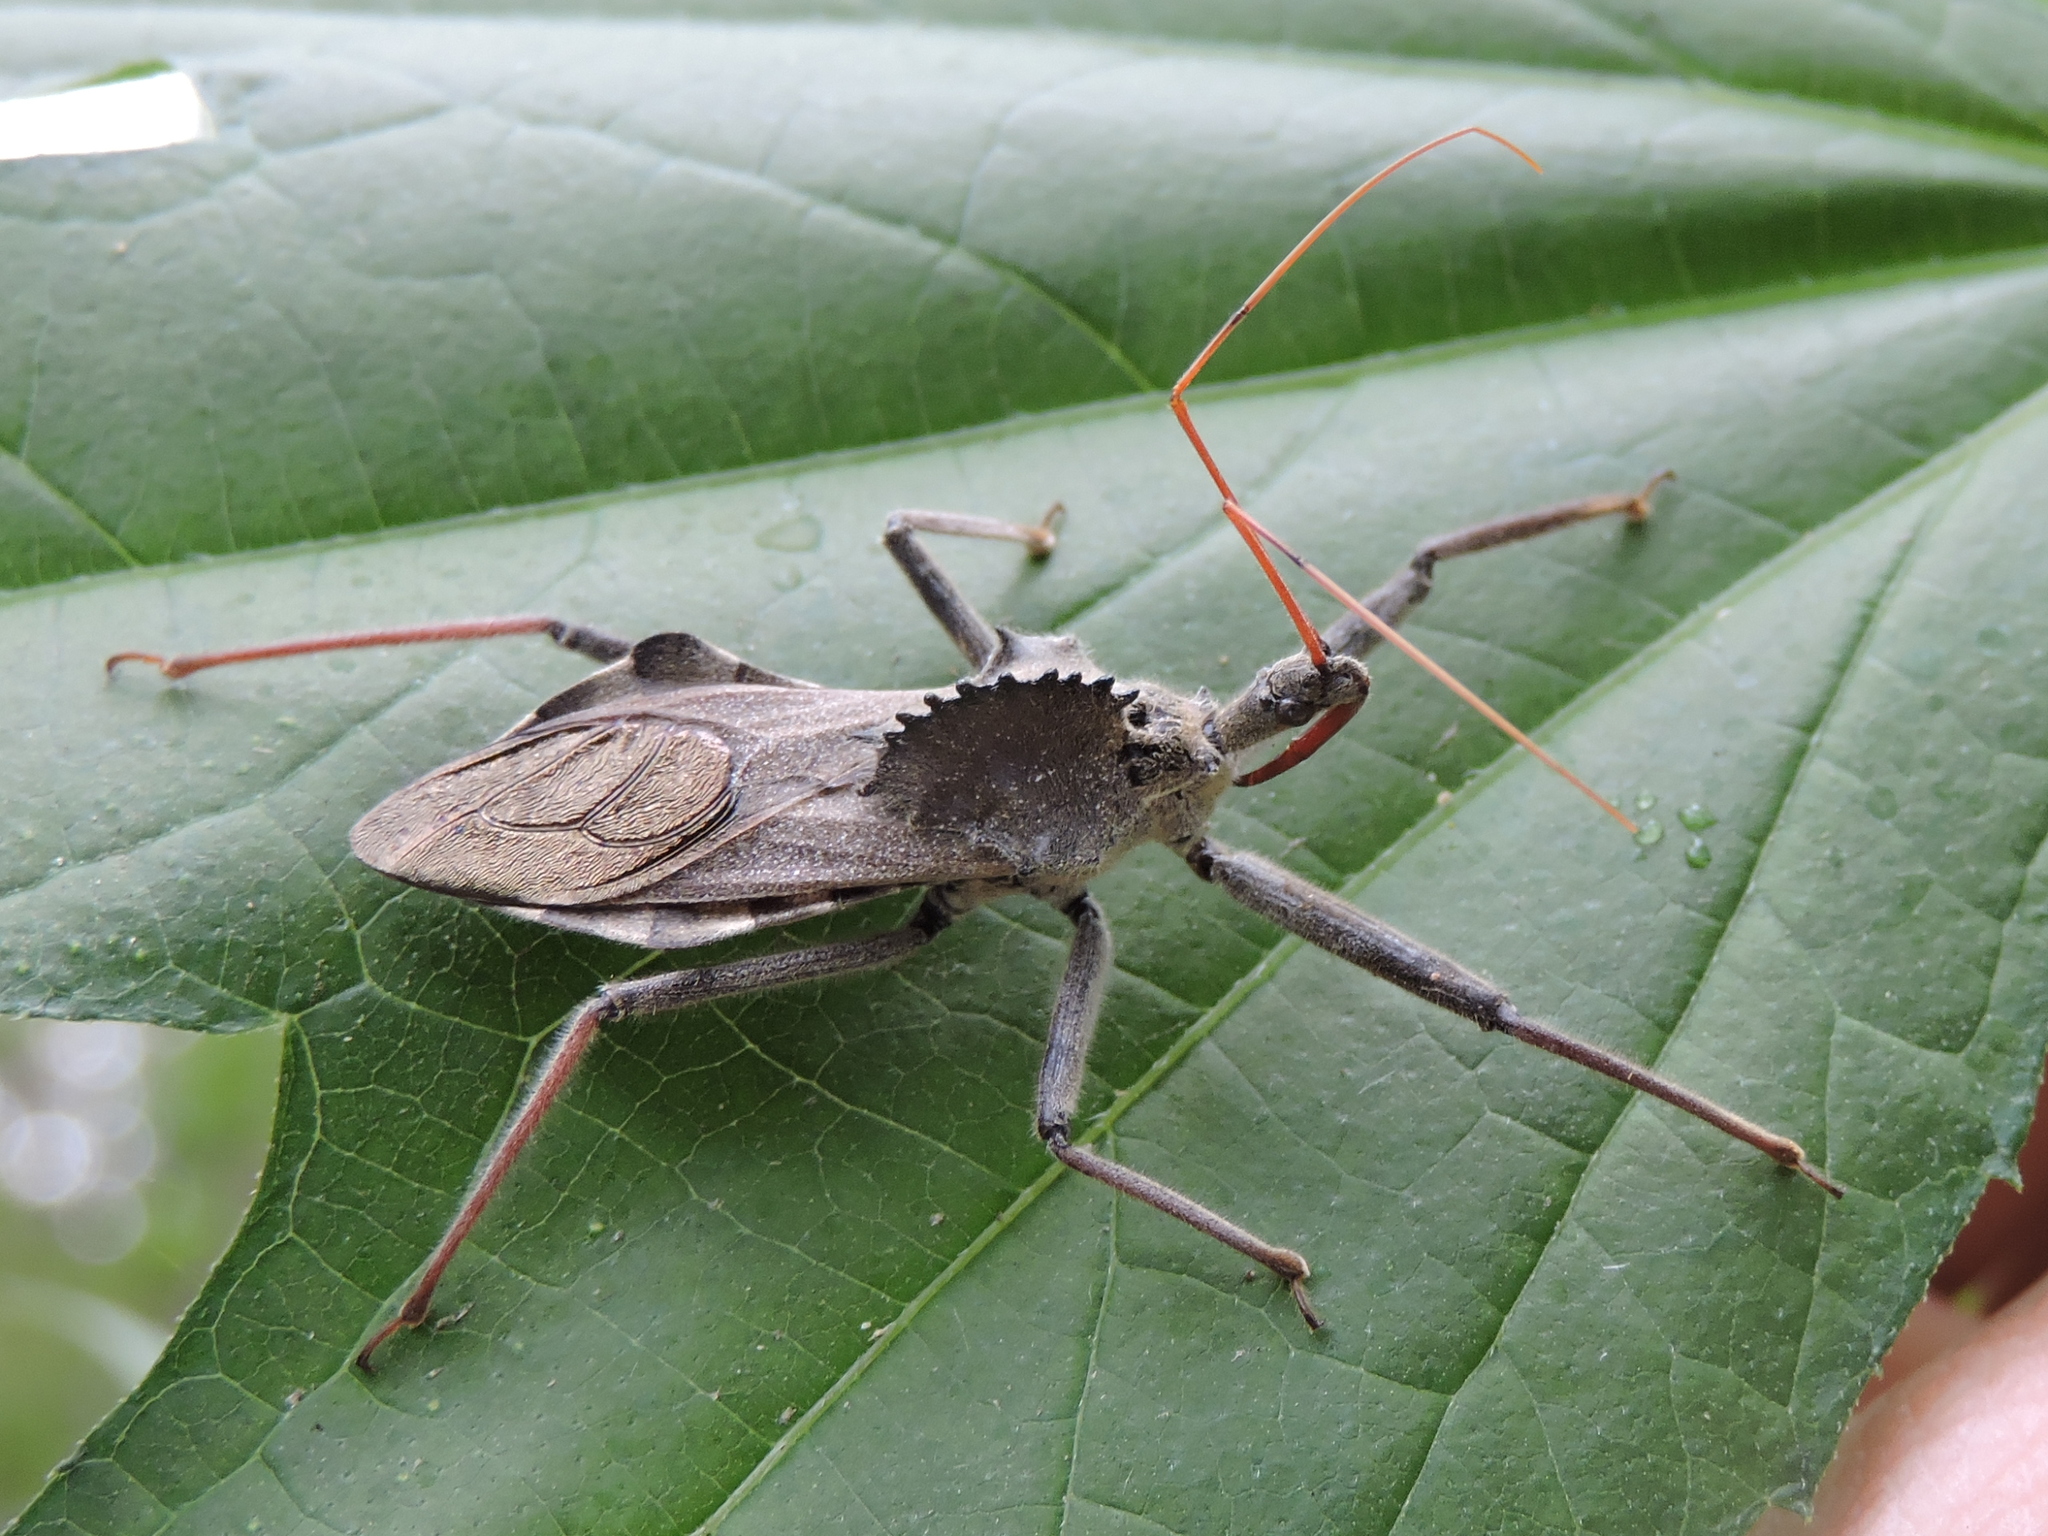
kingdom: Animalia
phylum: Arthropoda
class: Insecta
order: Hemiptera
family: Reduviidae
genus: Arilus
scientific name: Arilus cristatus
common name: North american wheel bug
